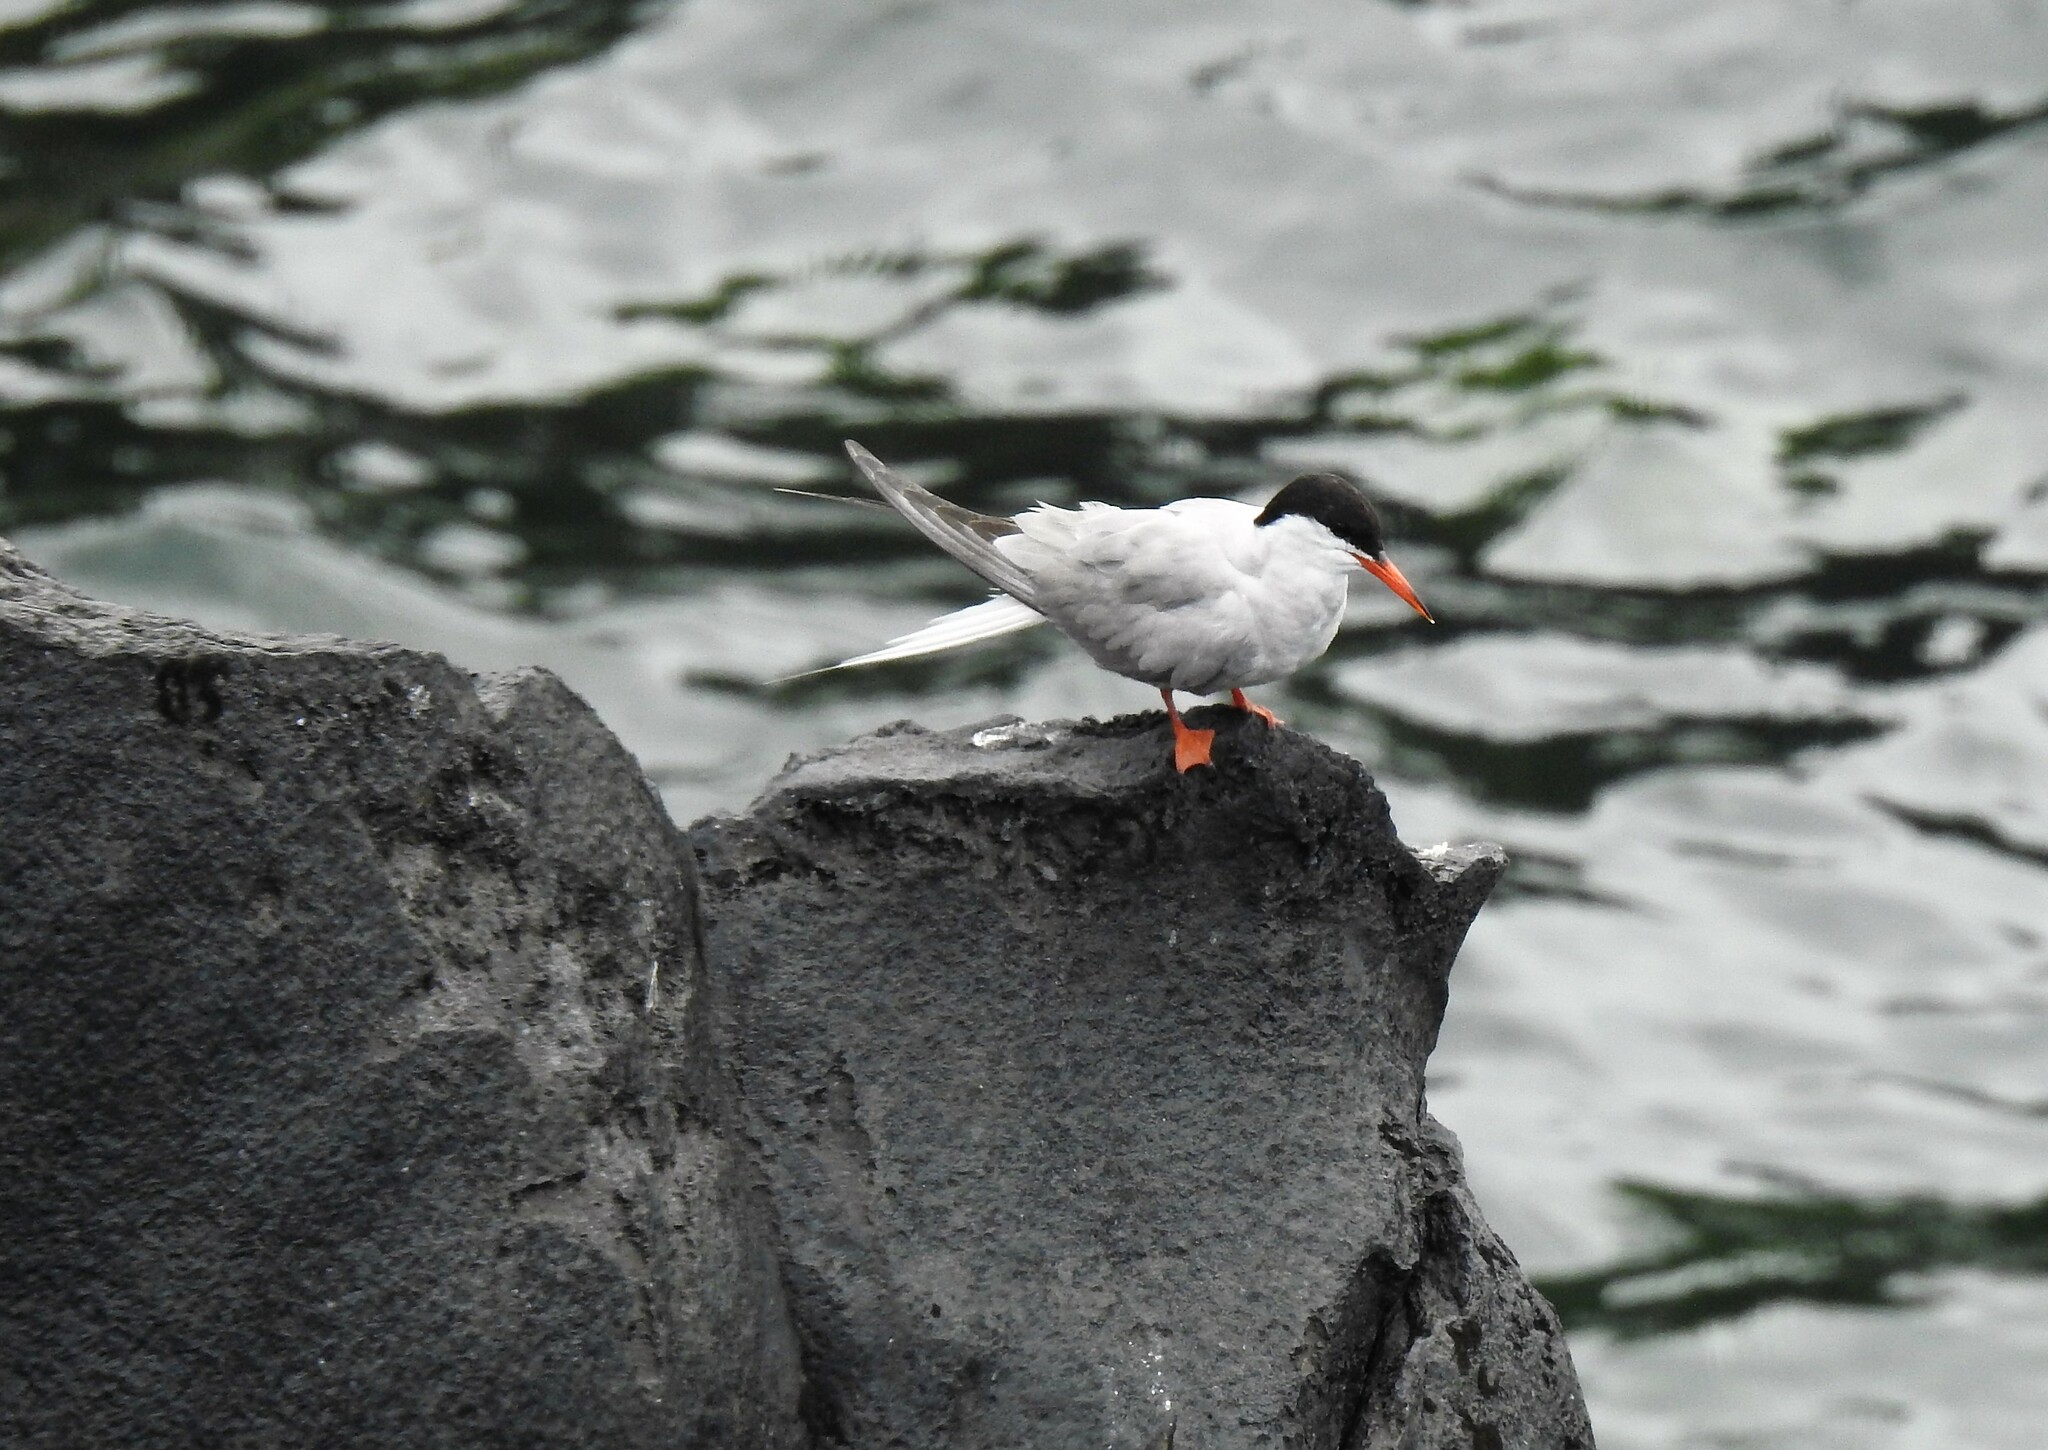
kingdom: Animalia
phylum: Chordata
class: Aves
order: Charadriiformes
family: Laridae
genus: Sterna
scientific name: Sterna hirundo
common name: Common tern
